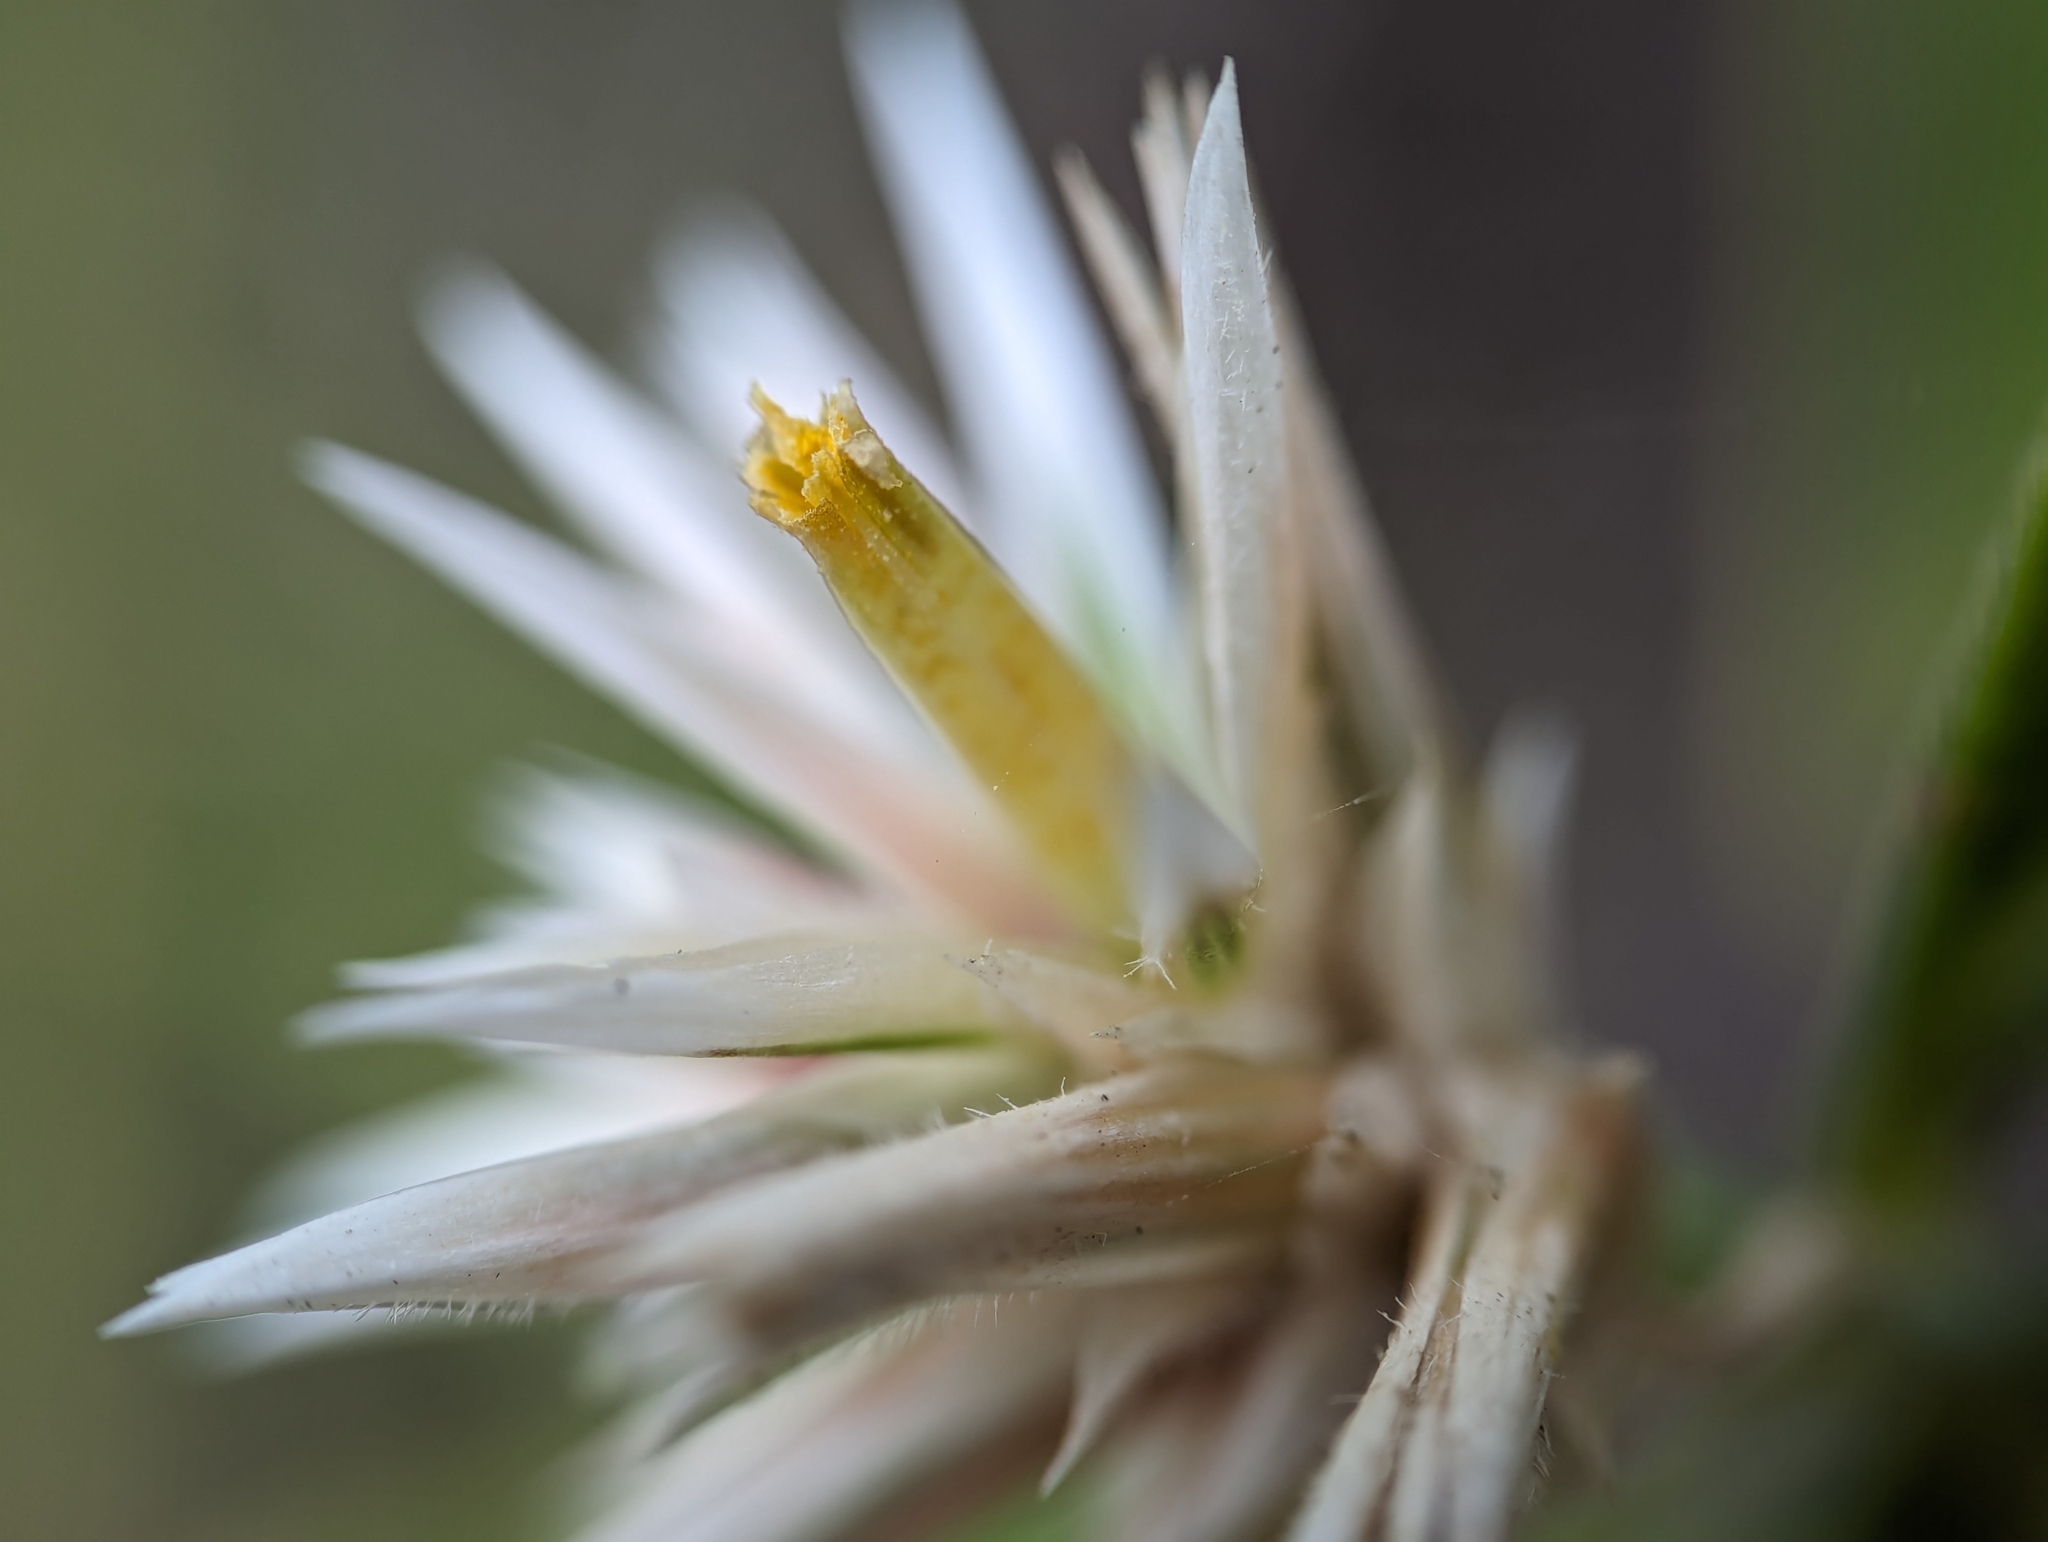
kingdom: Plantae
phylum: Tracheophyta
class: Magnoliopsida
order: Caryophyllales
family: Amaranthaceae
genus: Alternanthera
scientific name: Alternanthera echinocephala
